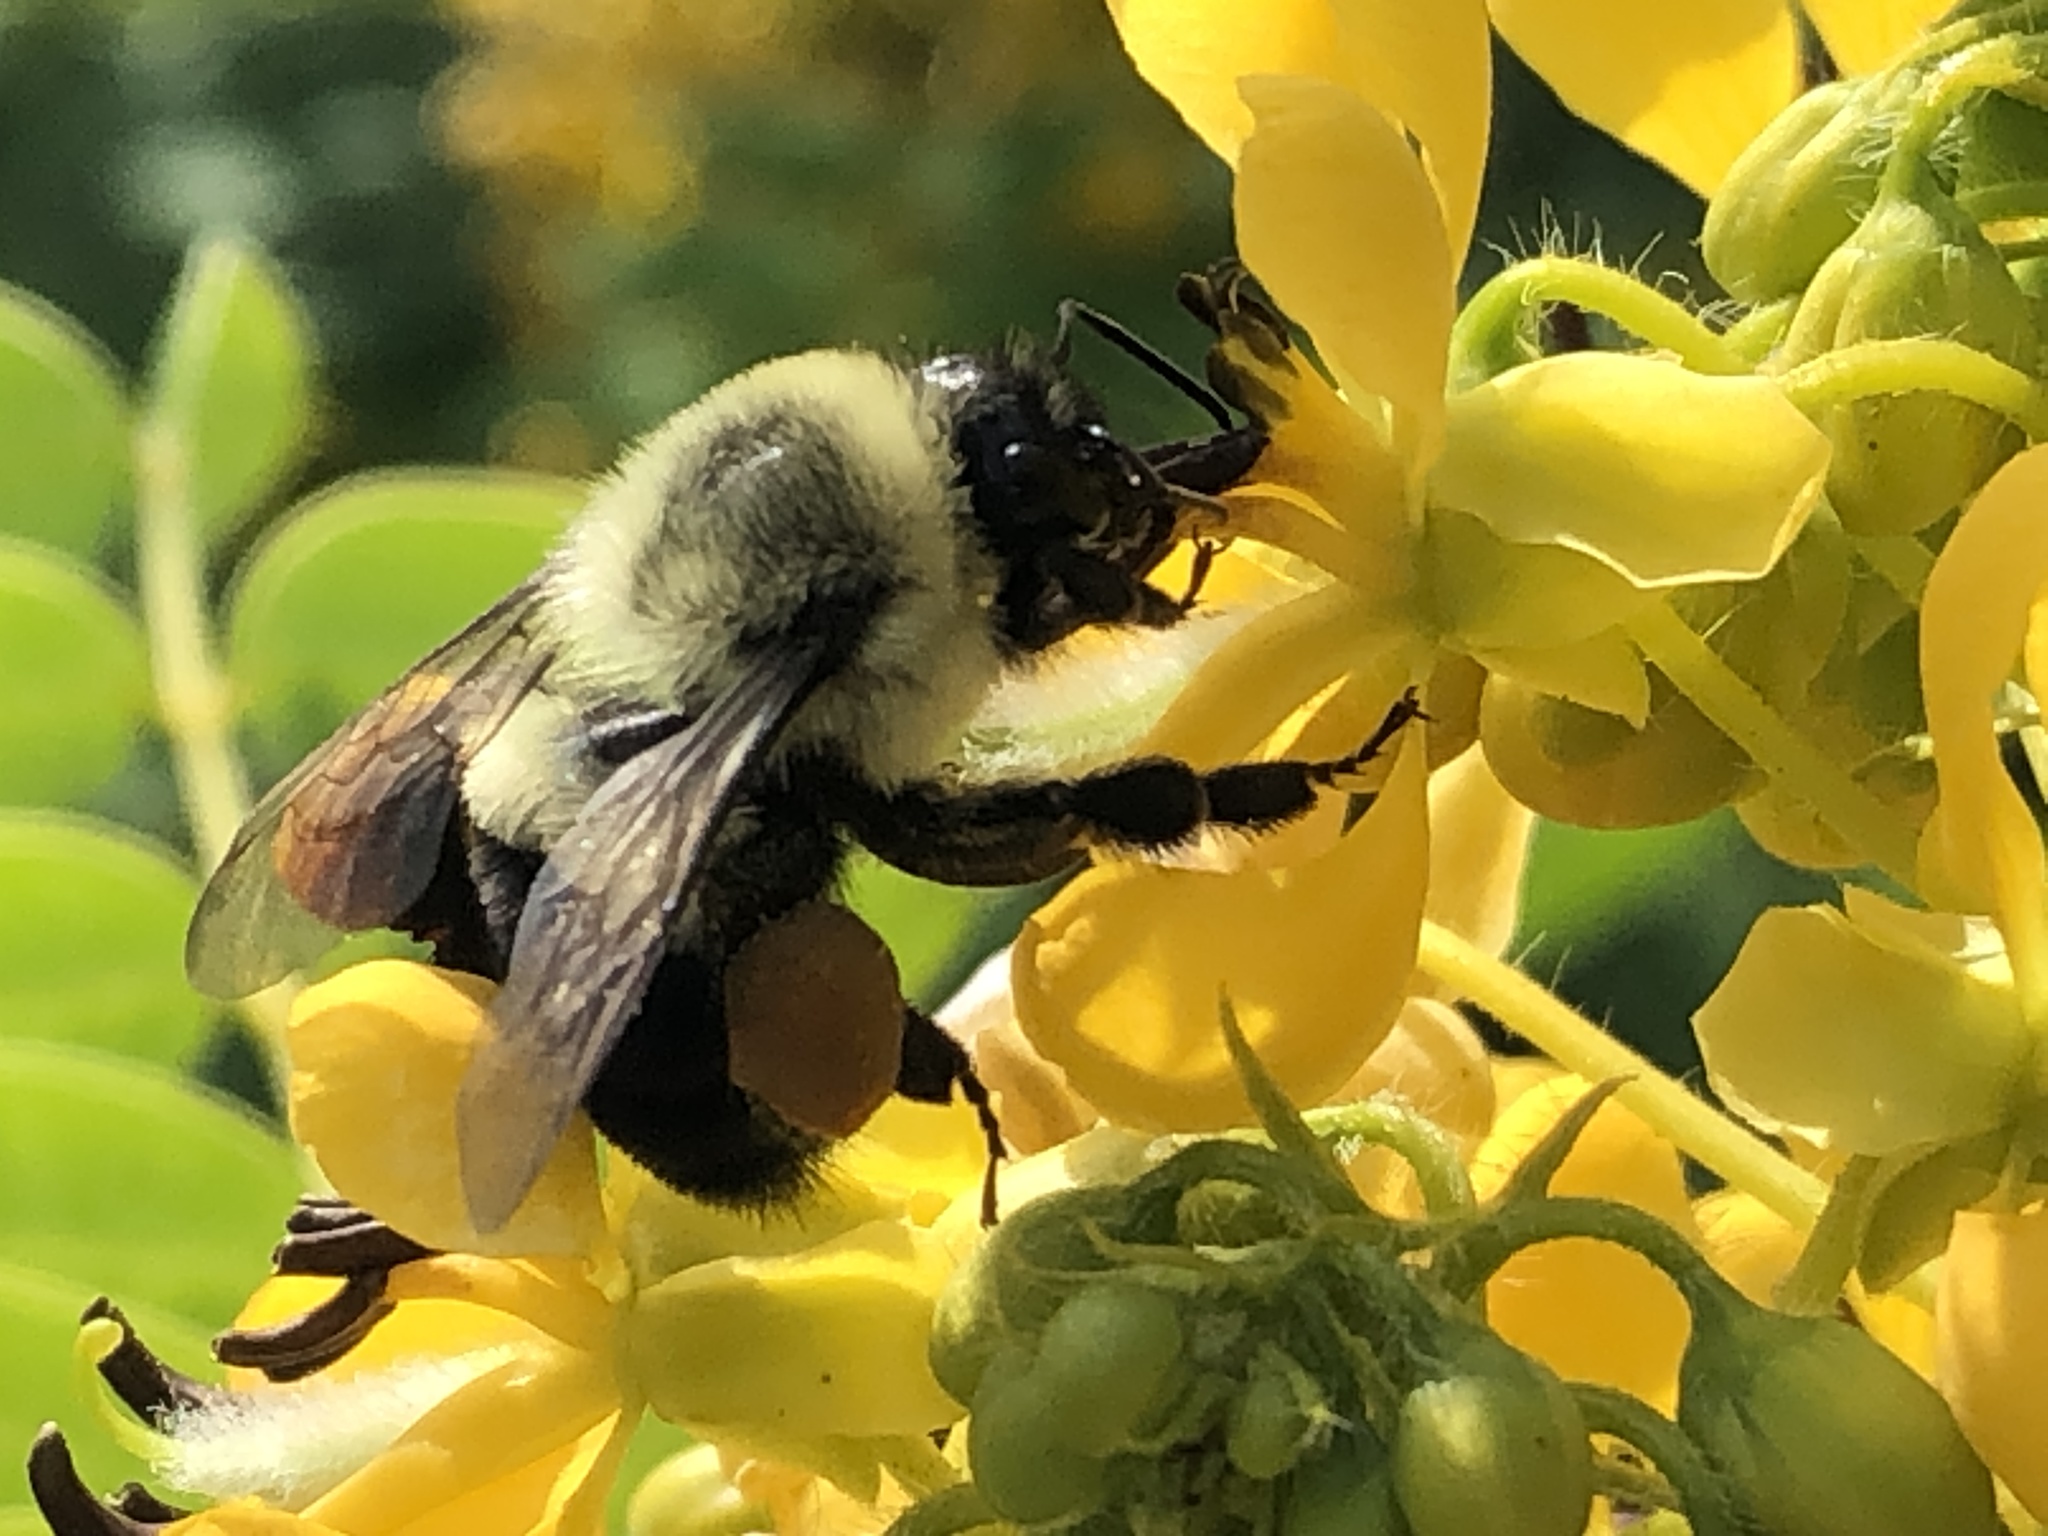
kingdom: Animalia
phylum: Arthropoda
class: Insecta
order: Hymenoptera
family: Apidae
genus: Bombus
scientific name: Bombus impatiens
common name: Common eastern bumble bee
